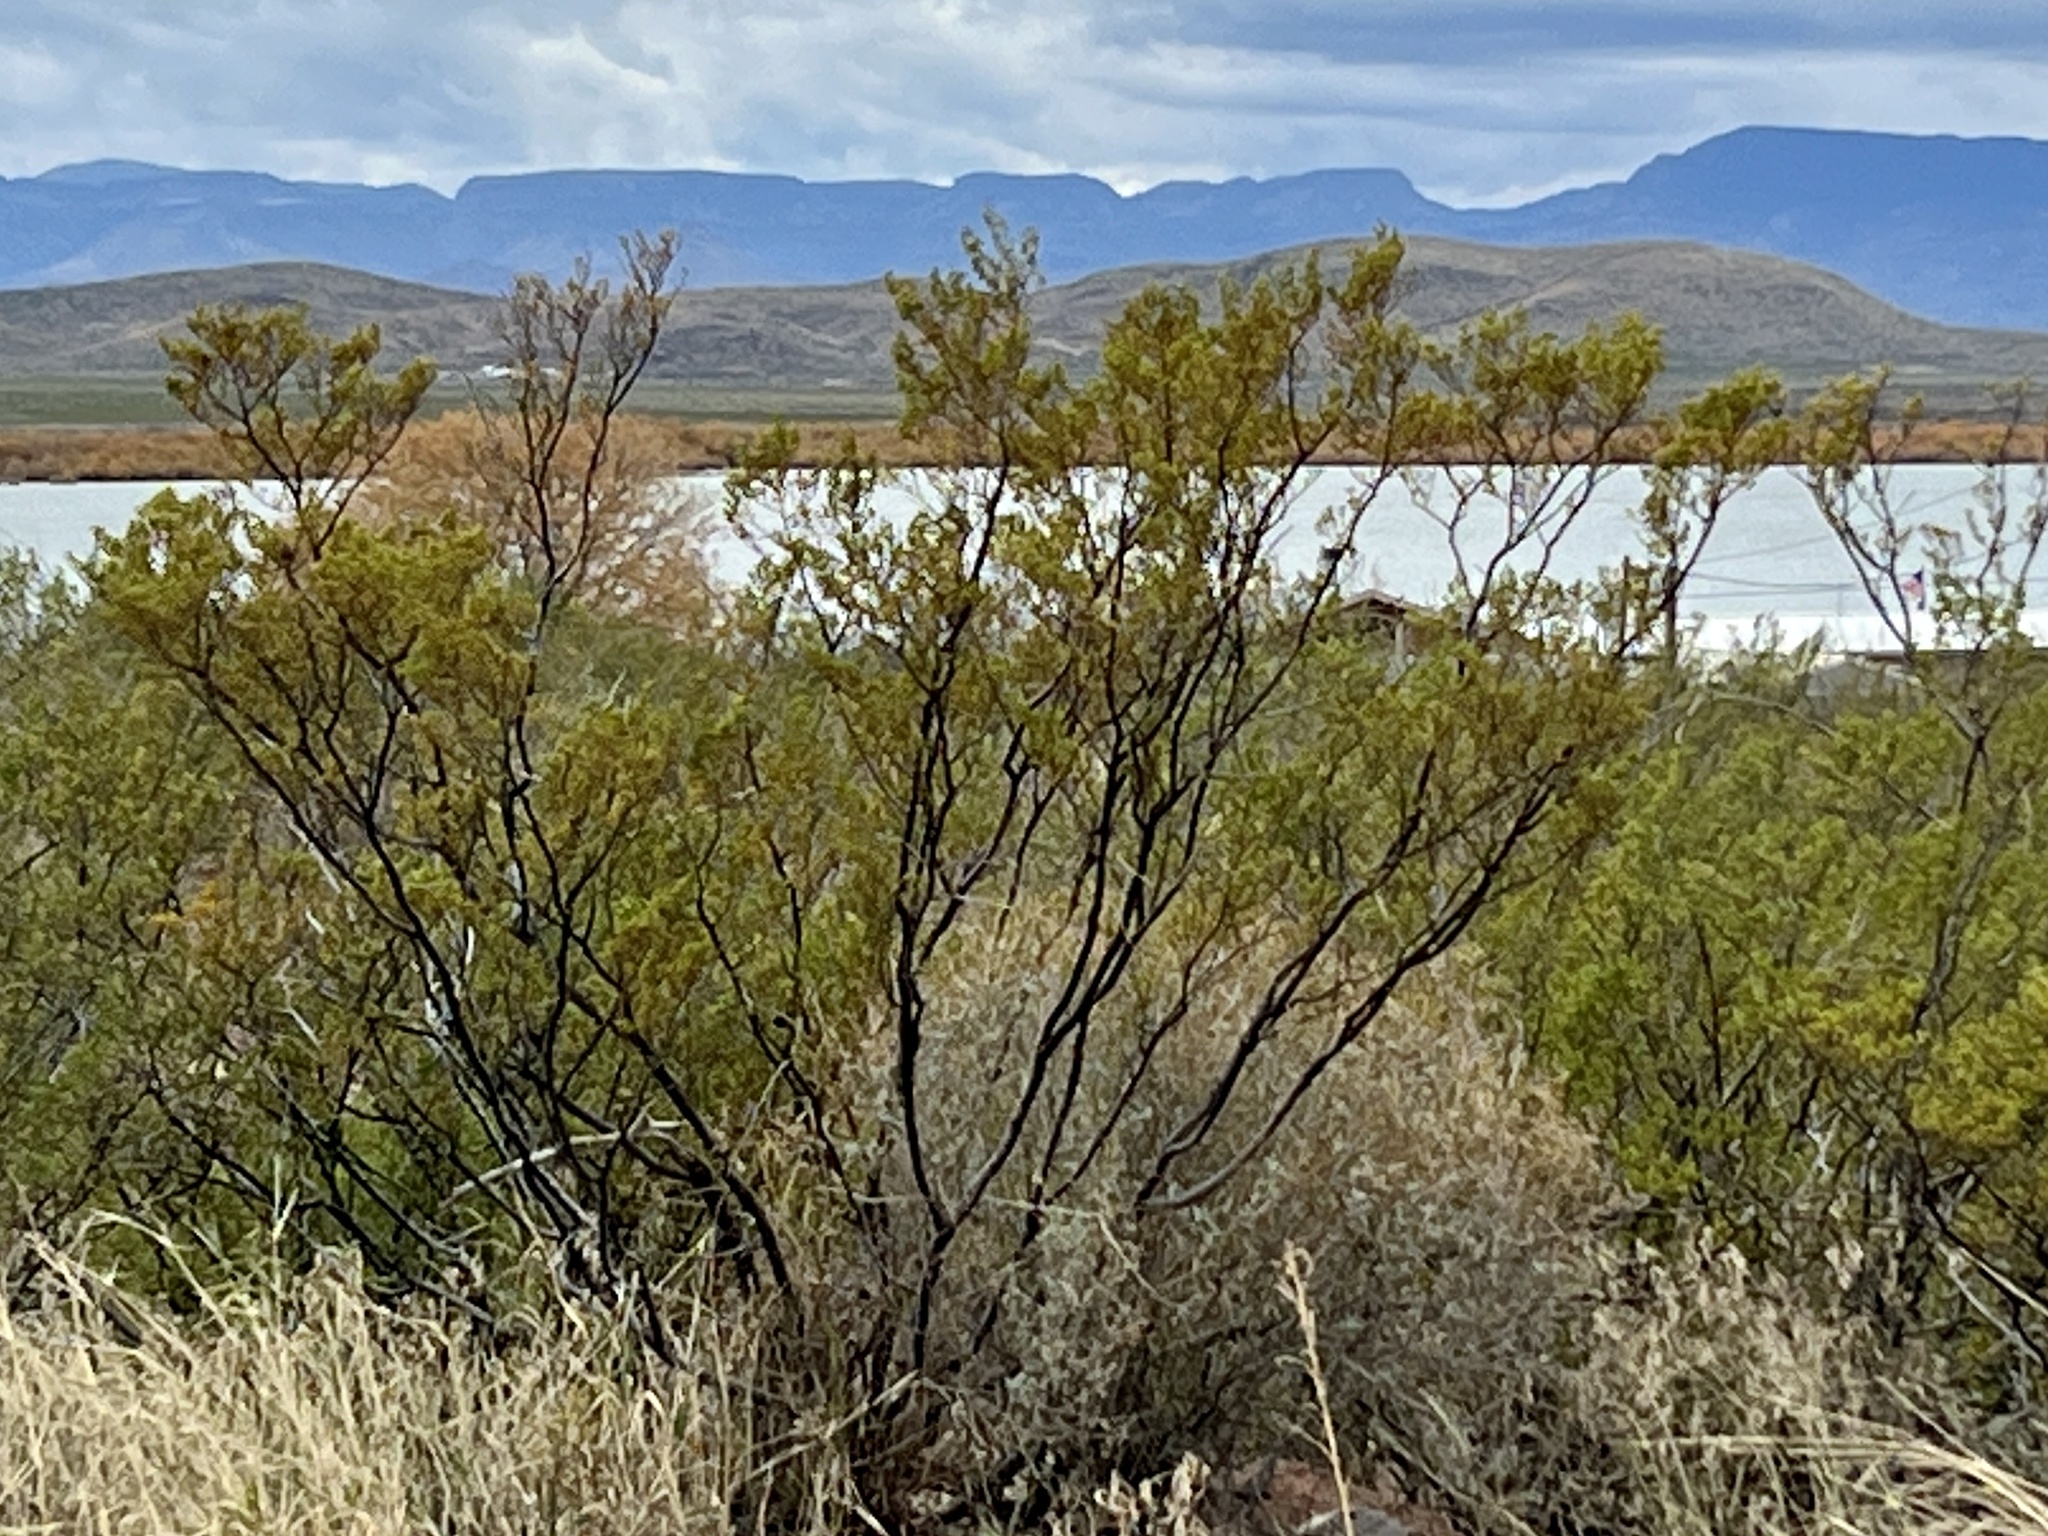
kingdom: Plantae
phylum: Tracheophyta
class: Magnoliopsida
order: Zygophyllales
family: Zygophyllaceae
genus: Larrea
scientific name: Larrea tridentata
